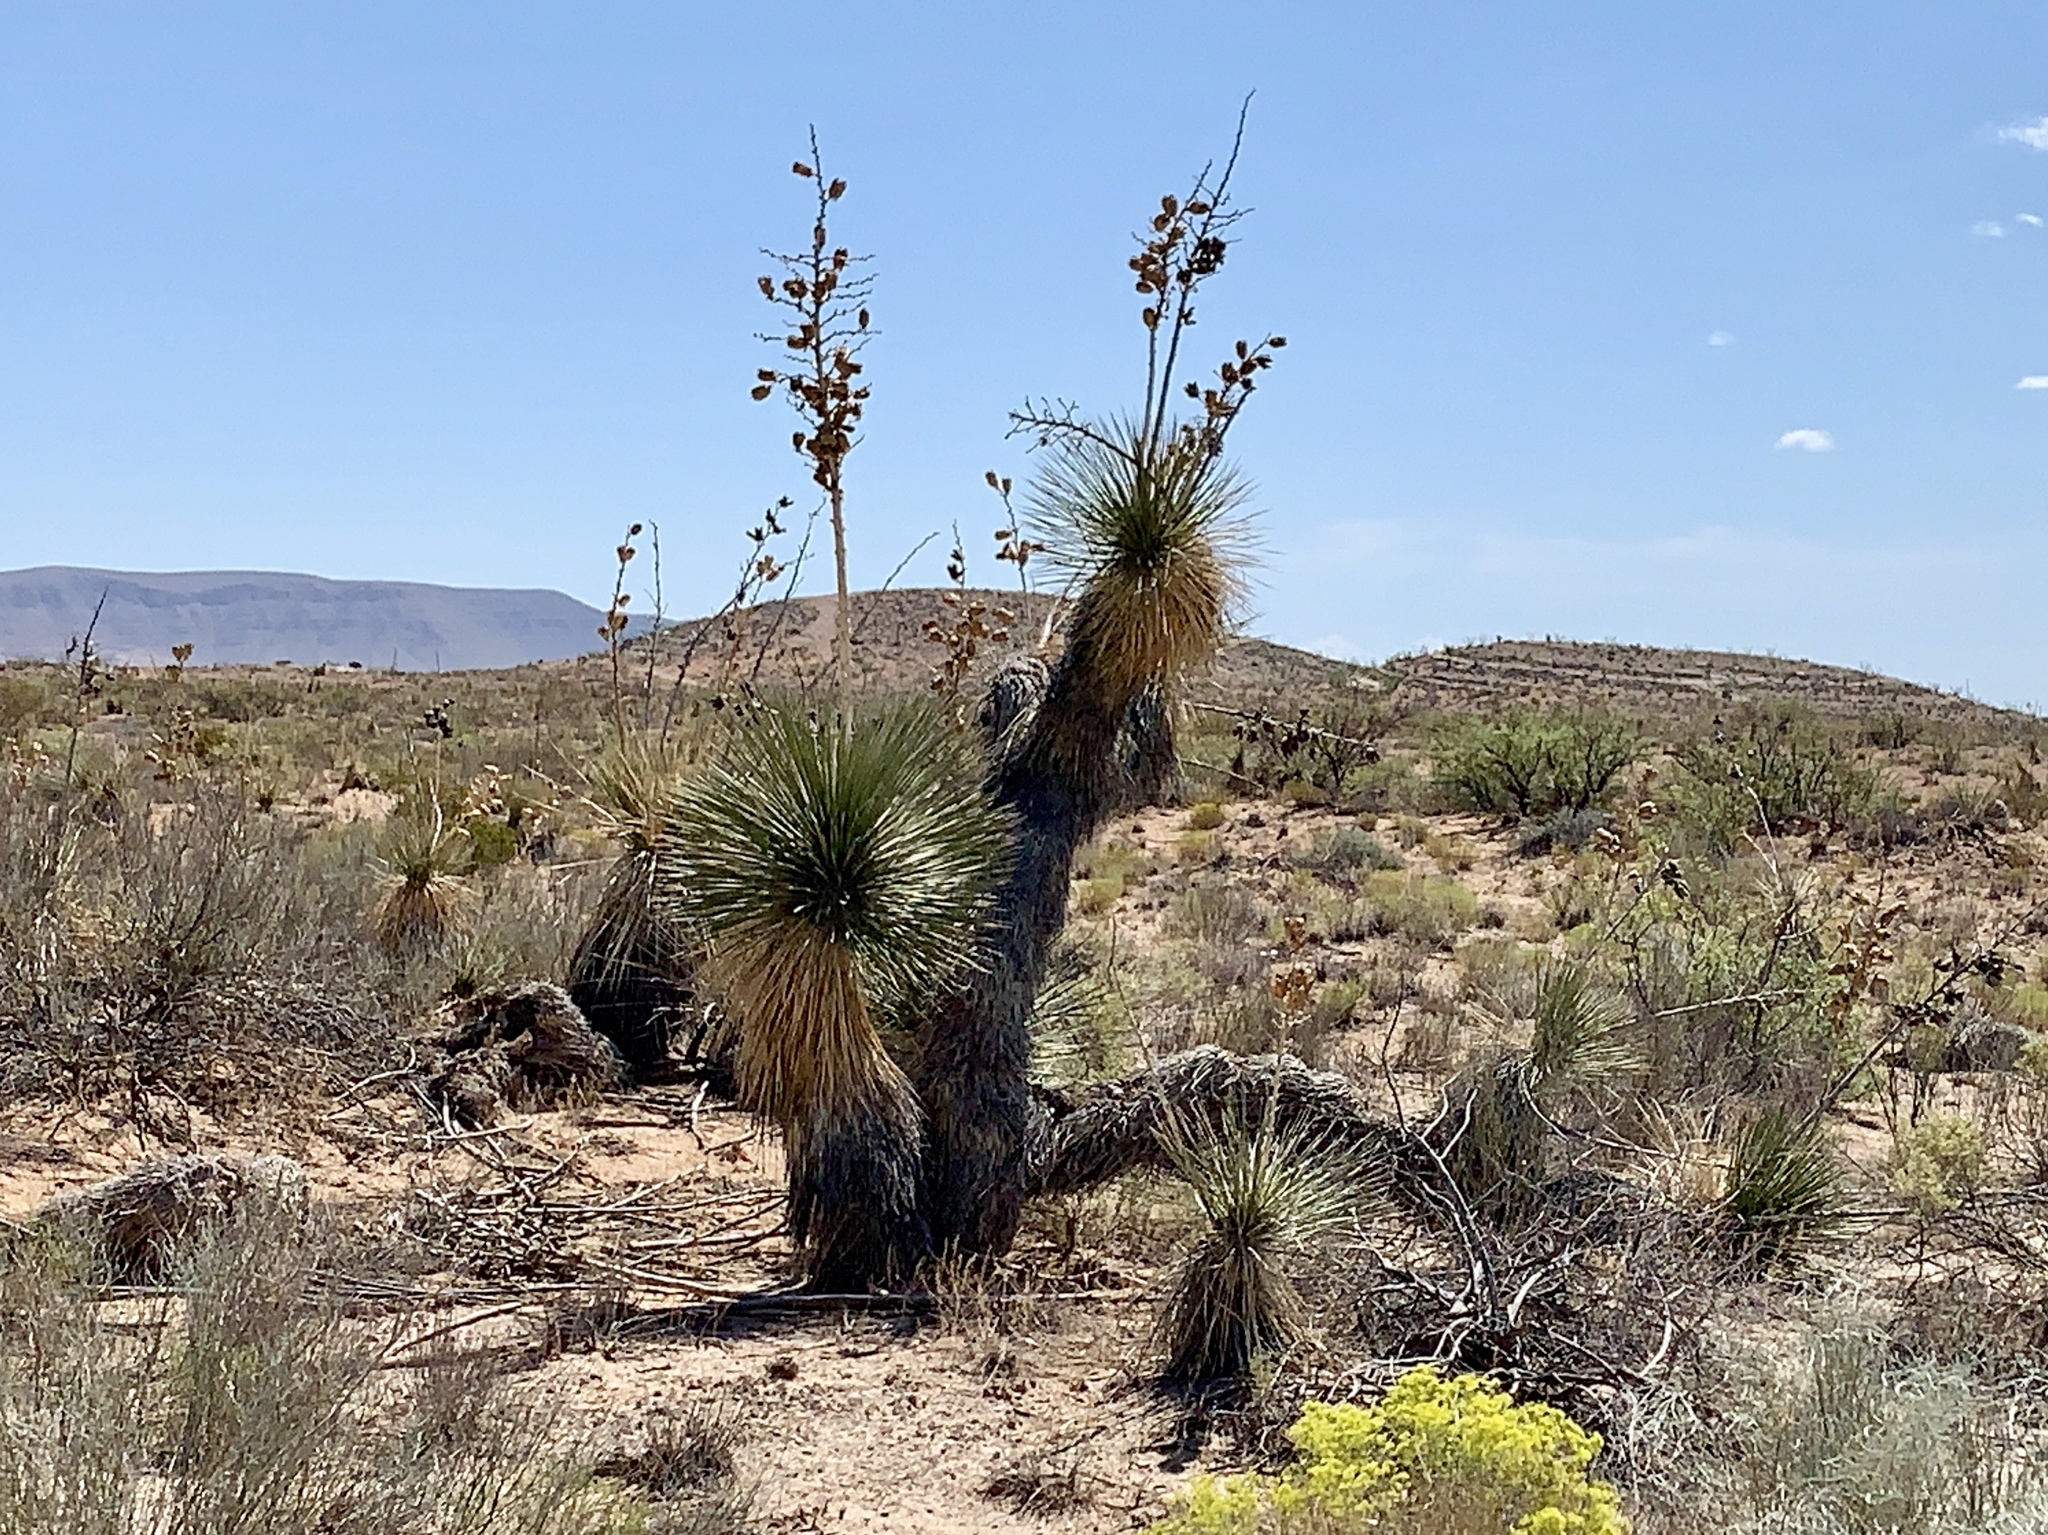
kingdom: Plantae
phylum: Tracheophyta
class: Liliopsida
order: Asparagales
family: Asparagaceae
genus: Yucca
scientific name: Yucca elata
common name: Palmella
